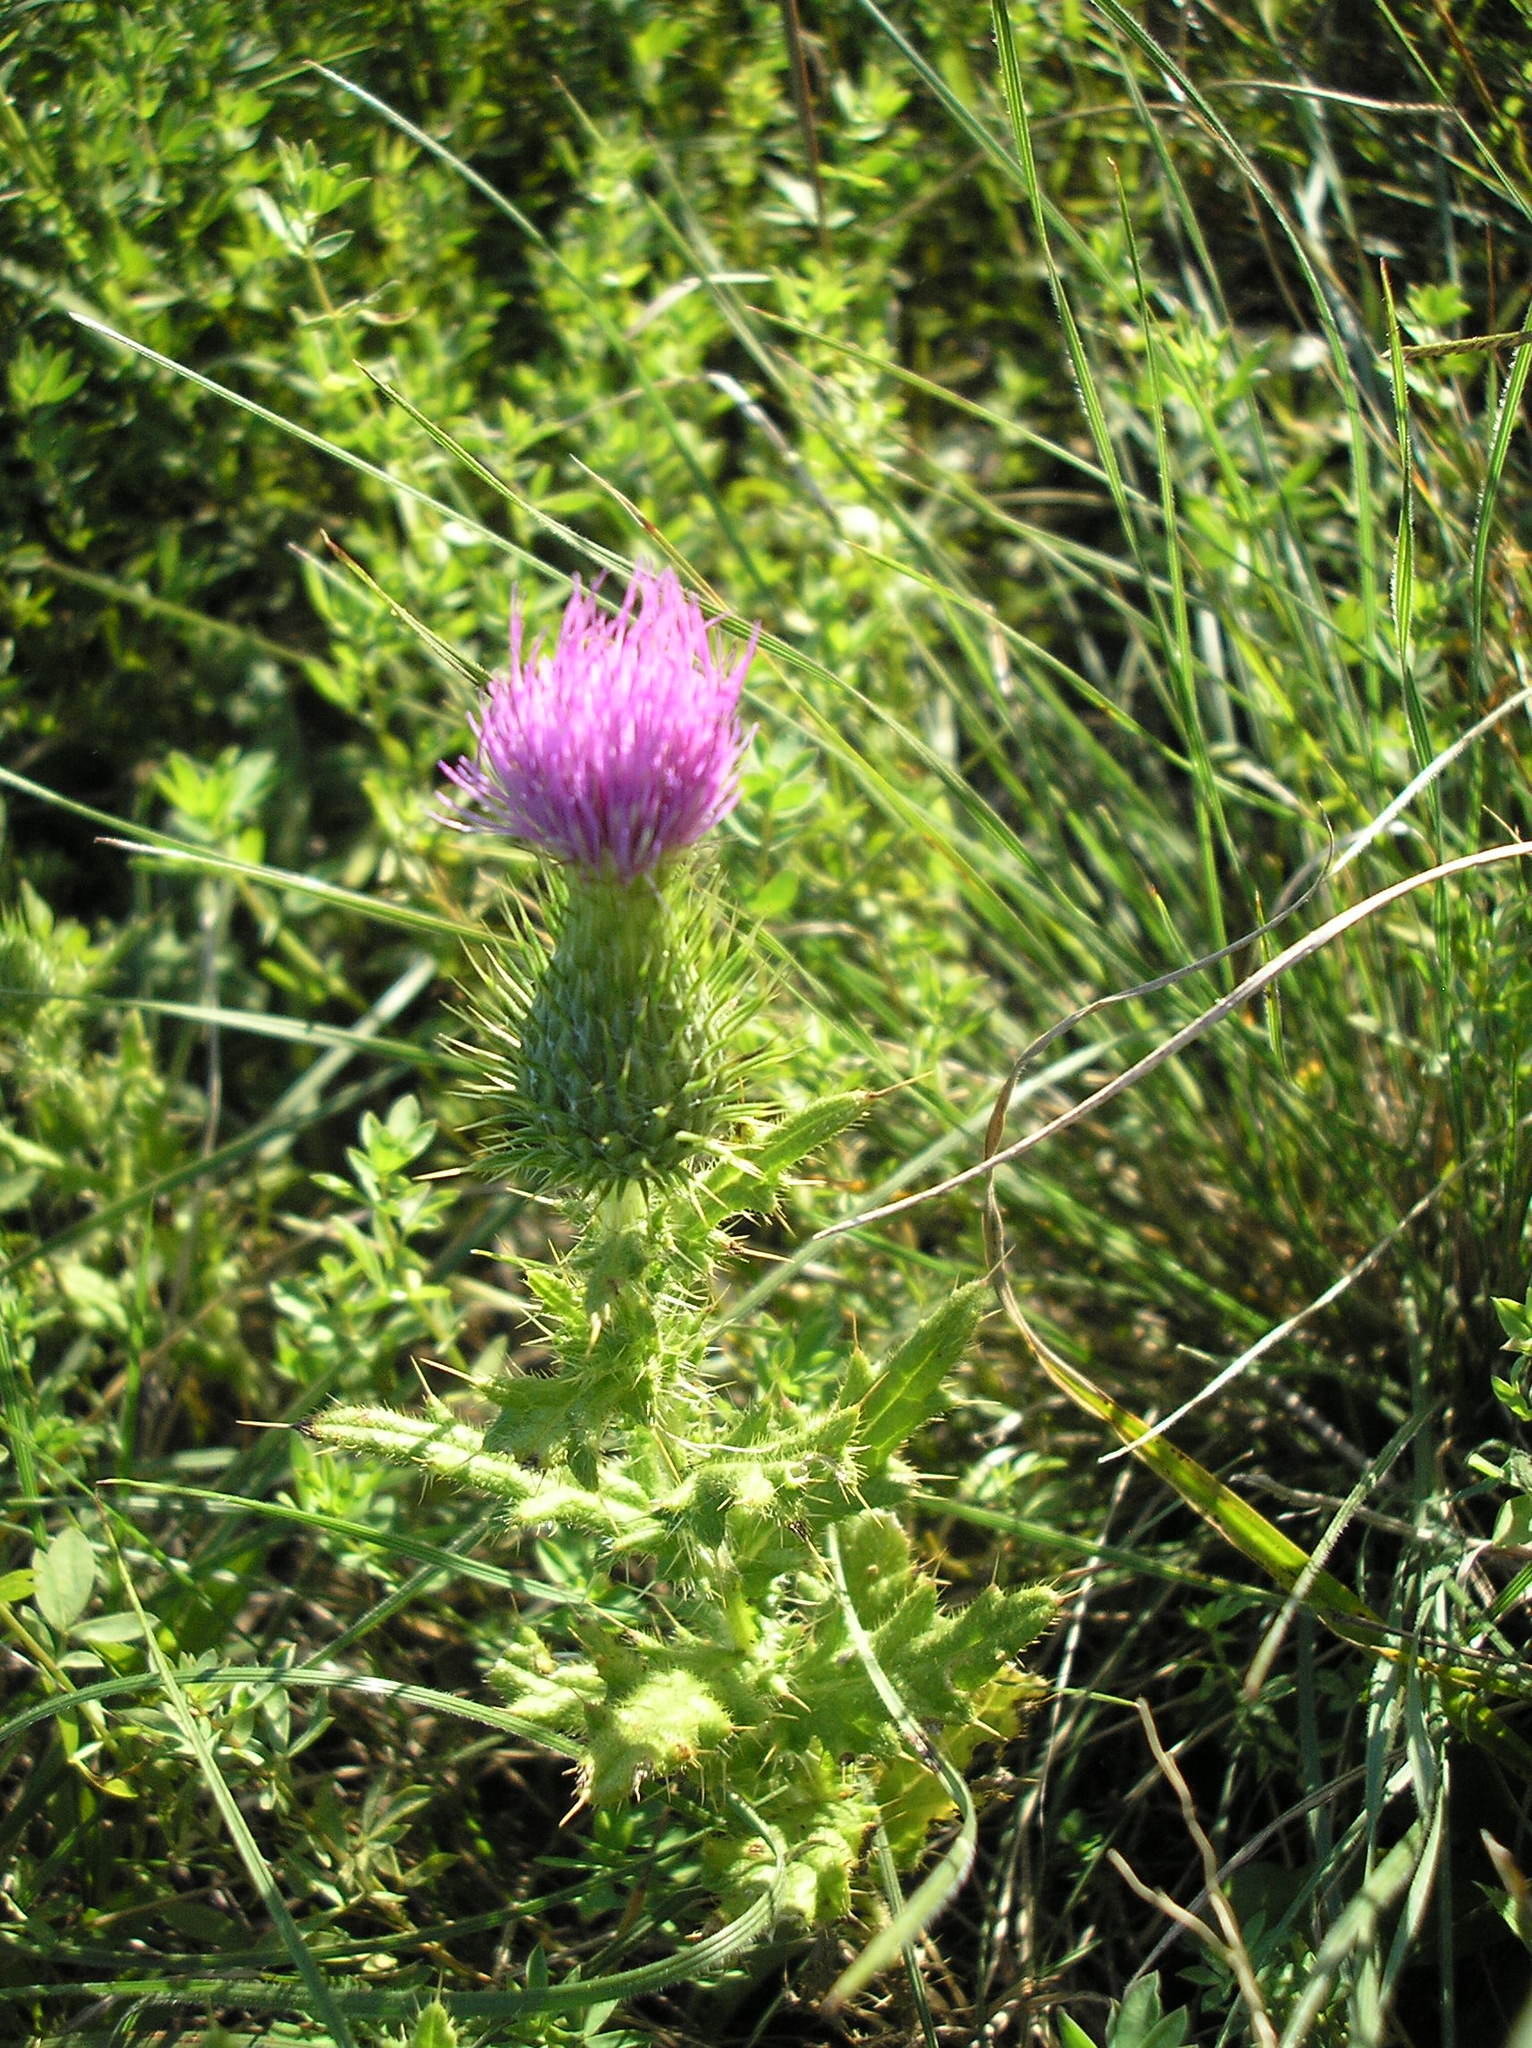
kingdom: Plantae
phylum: Tracheophyta
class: Magnoliopsida
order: Asterales
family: Asteraceae
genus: Cirsium
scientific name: Cirsium vulgare
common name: Bull thistle
